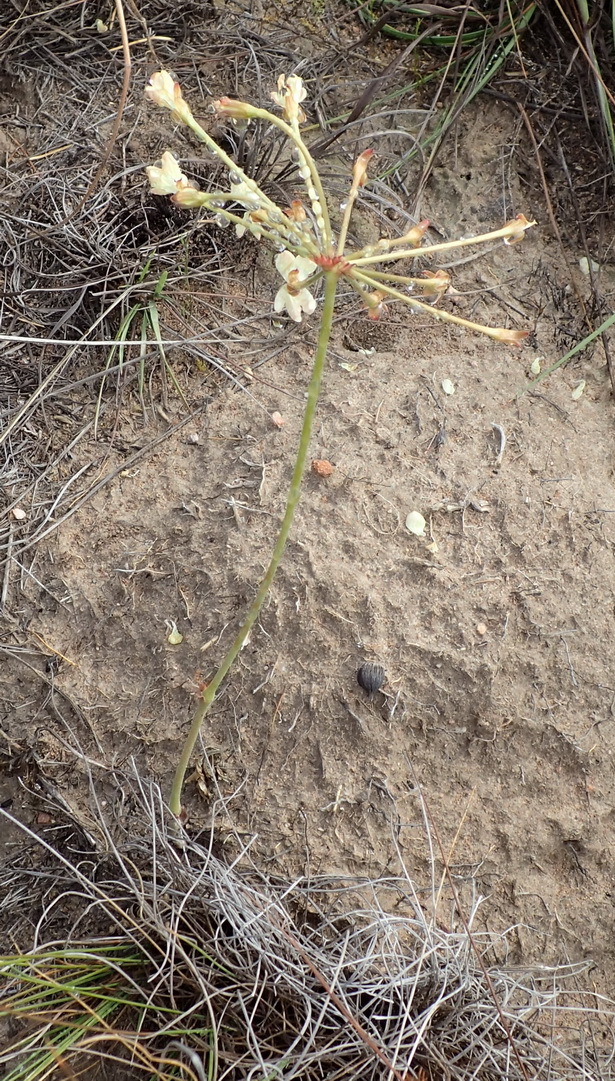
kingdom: Plantae
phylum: Tracheophyta
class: Magnoliopsida
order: Geraniales
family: Geraniaceae
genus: Pelargonium
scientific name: Pelargonium pillansii
